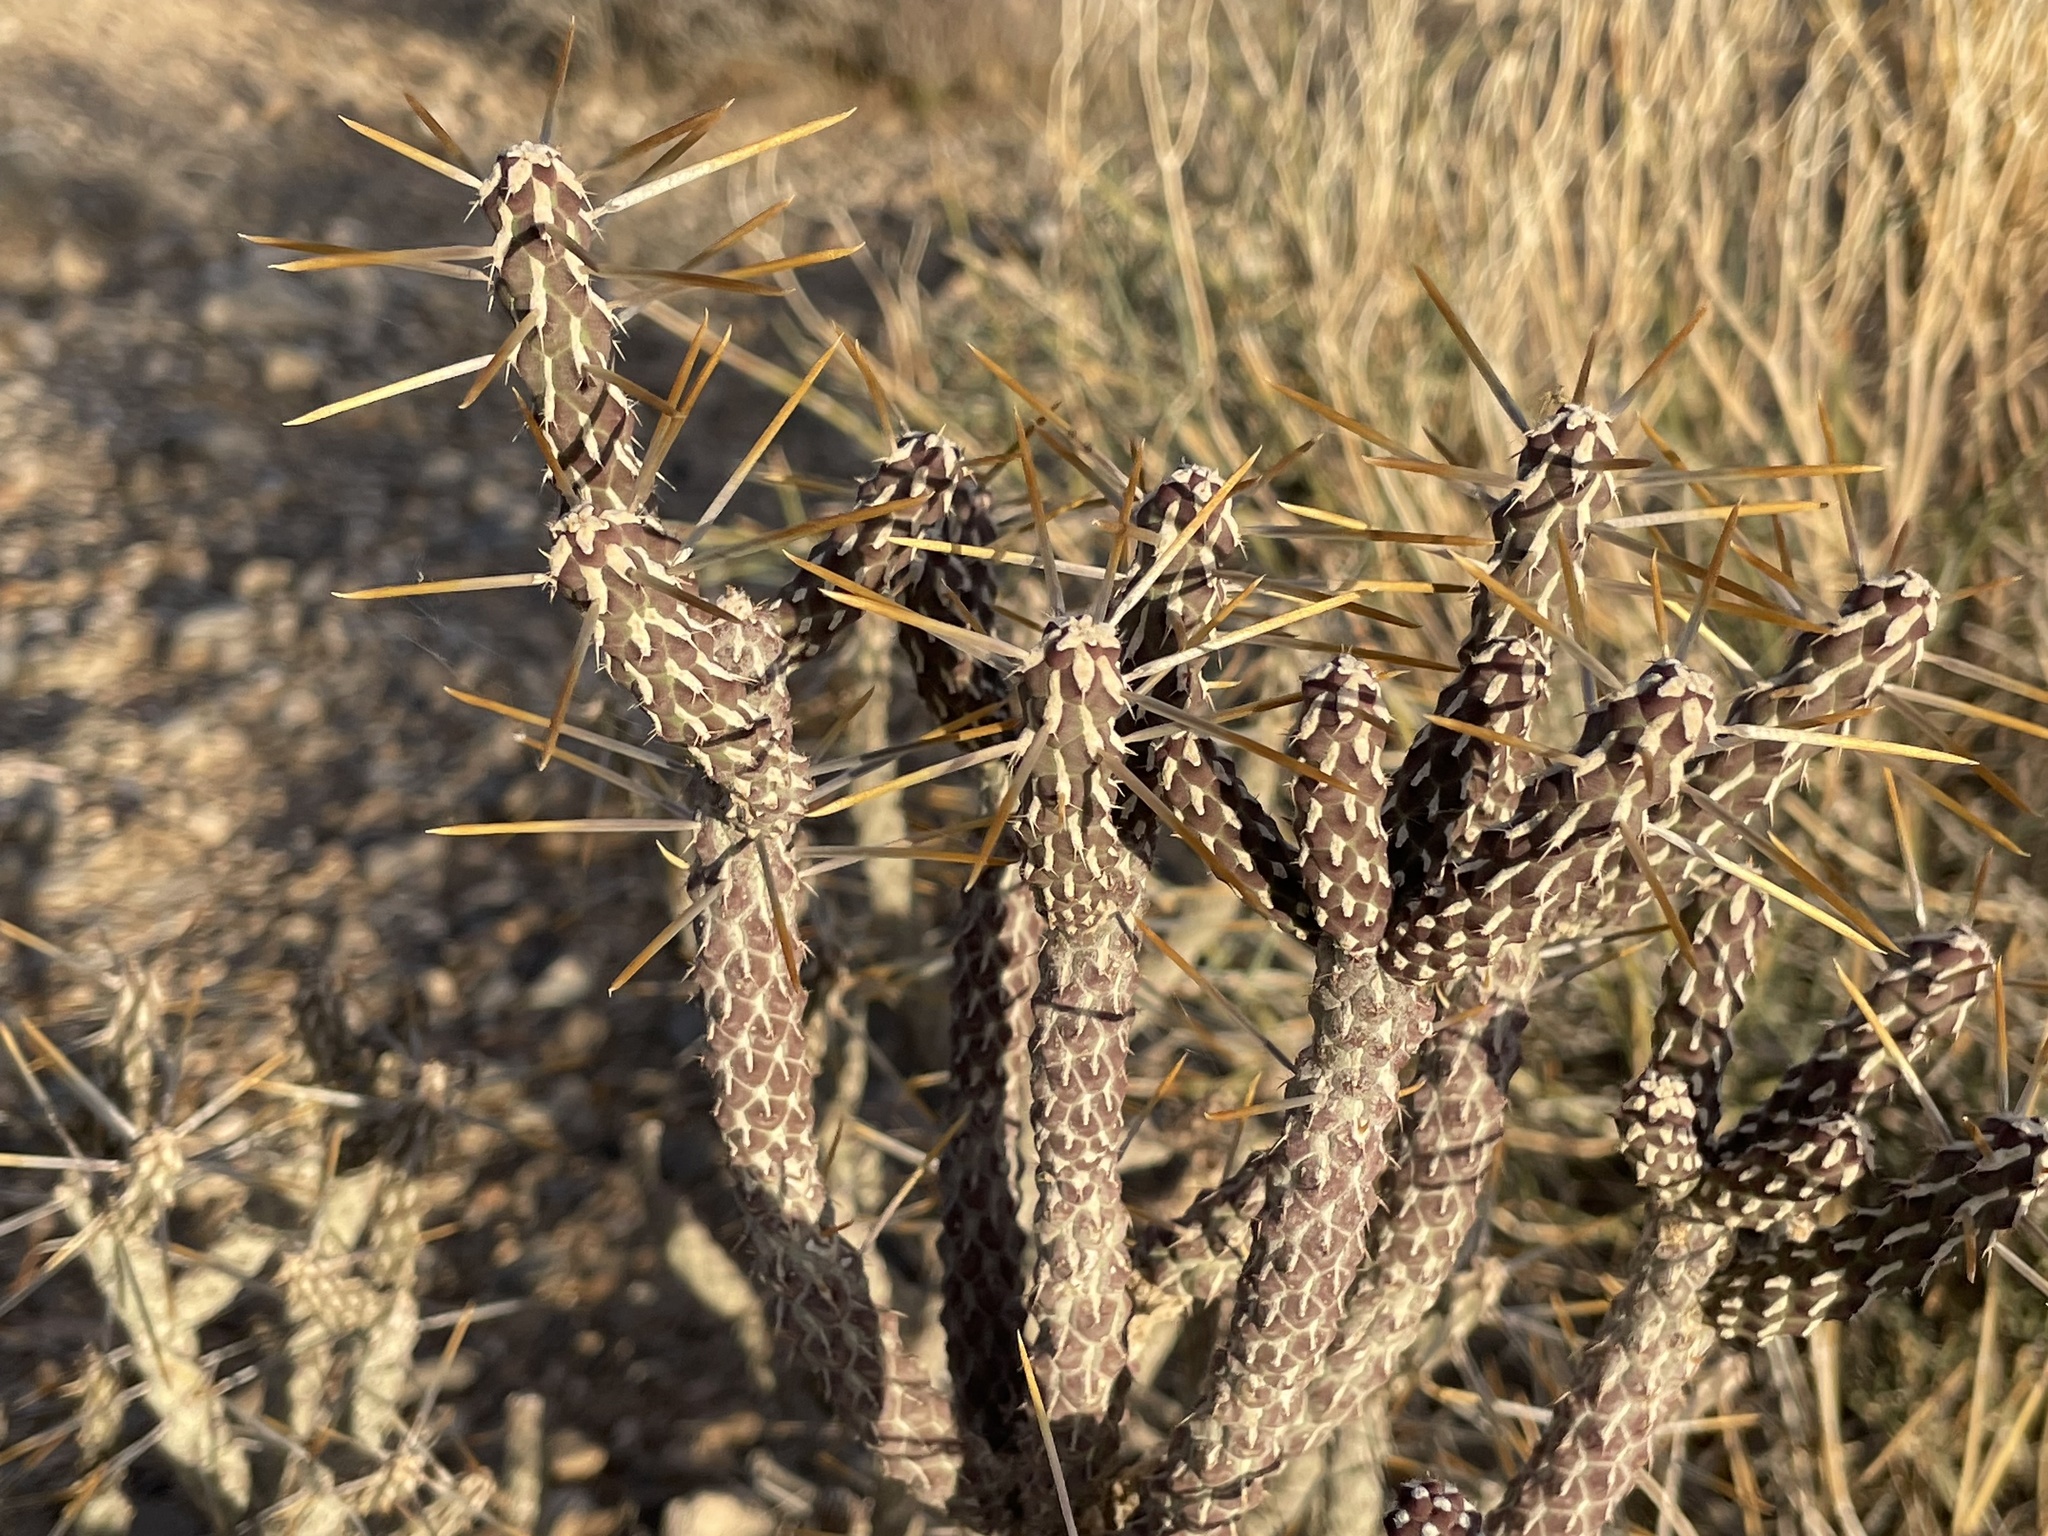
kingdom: Plantae
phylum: Tracheophyta
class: Magnoliopsida
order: Caryophyllales
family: Cactaceae
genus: Cylindropuntia
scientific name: Cylindropuntia ramosissima
